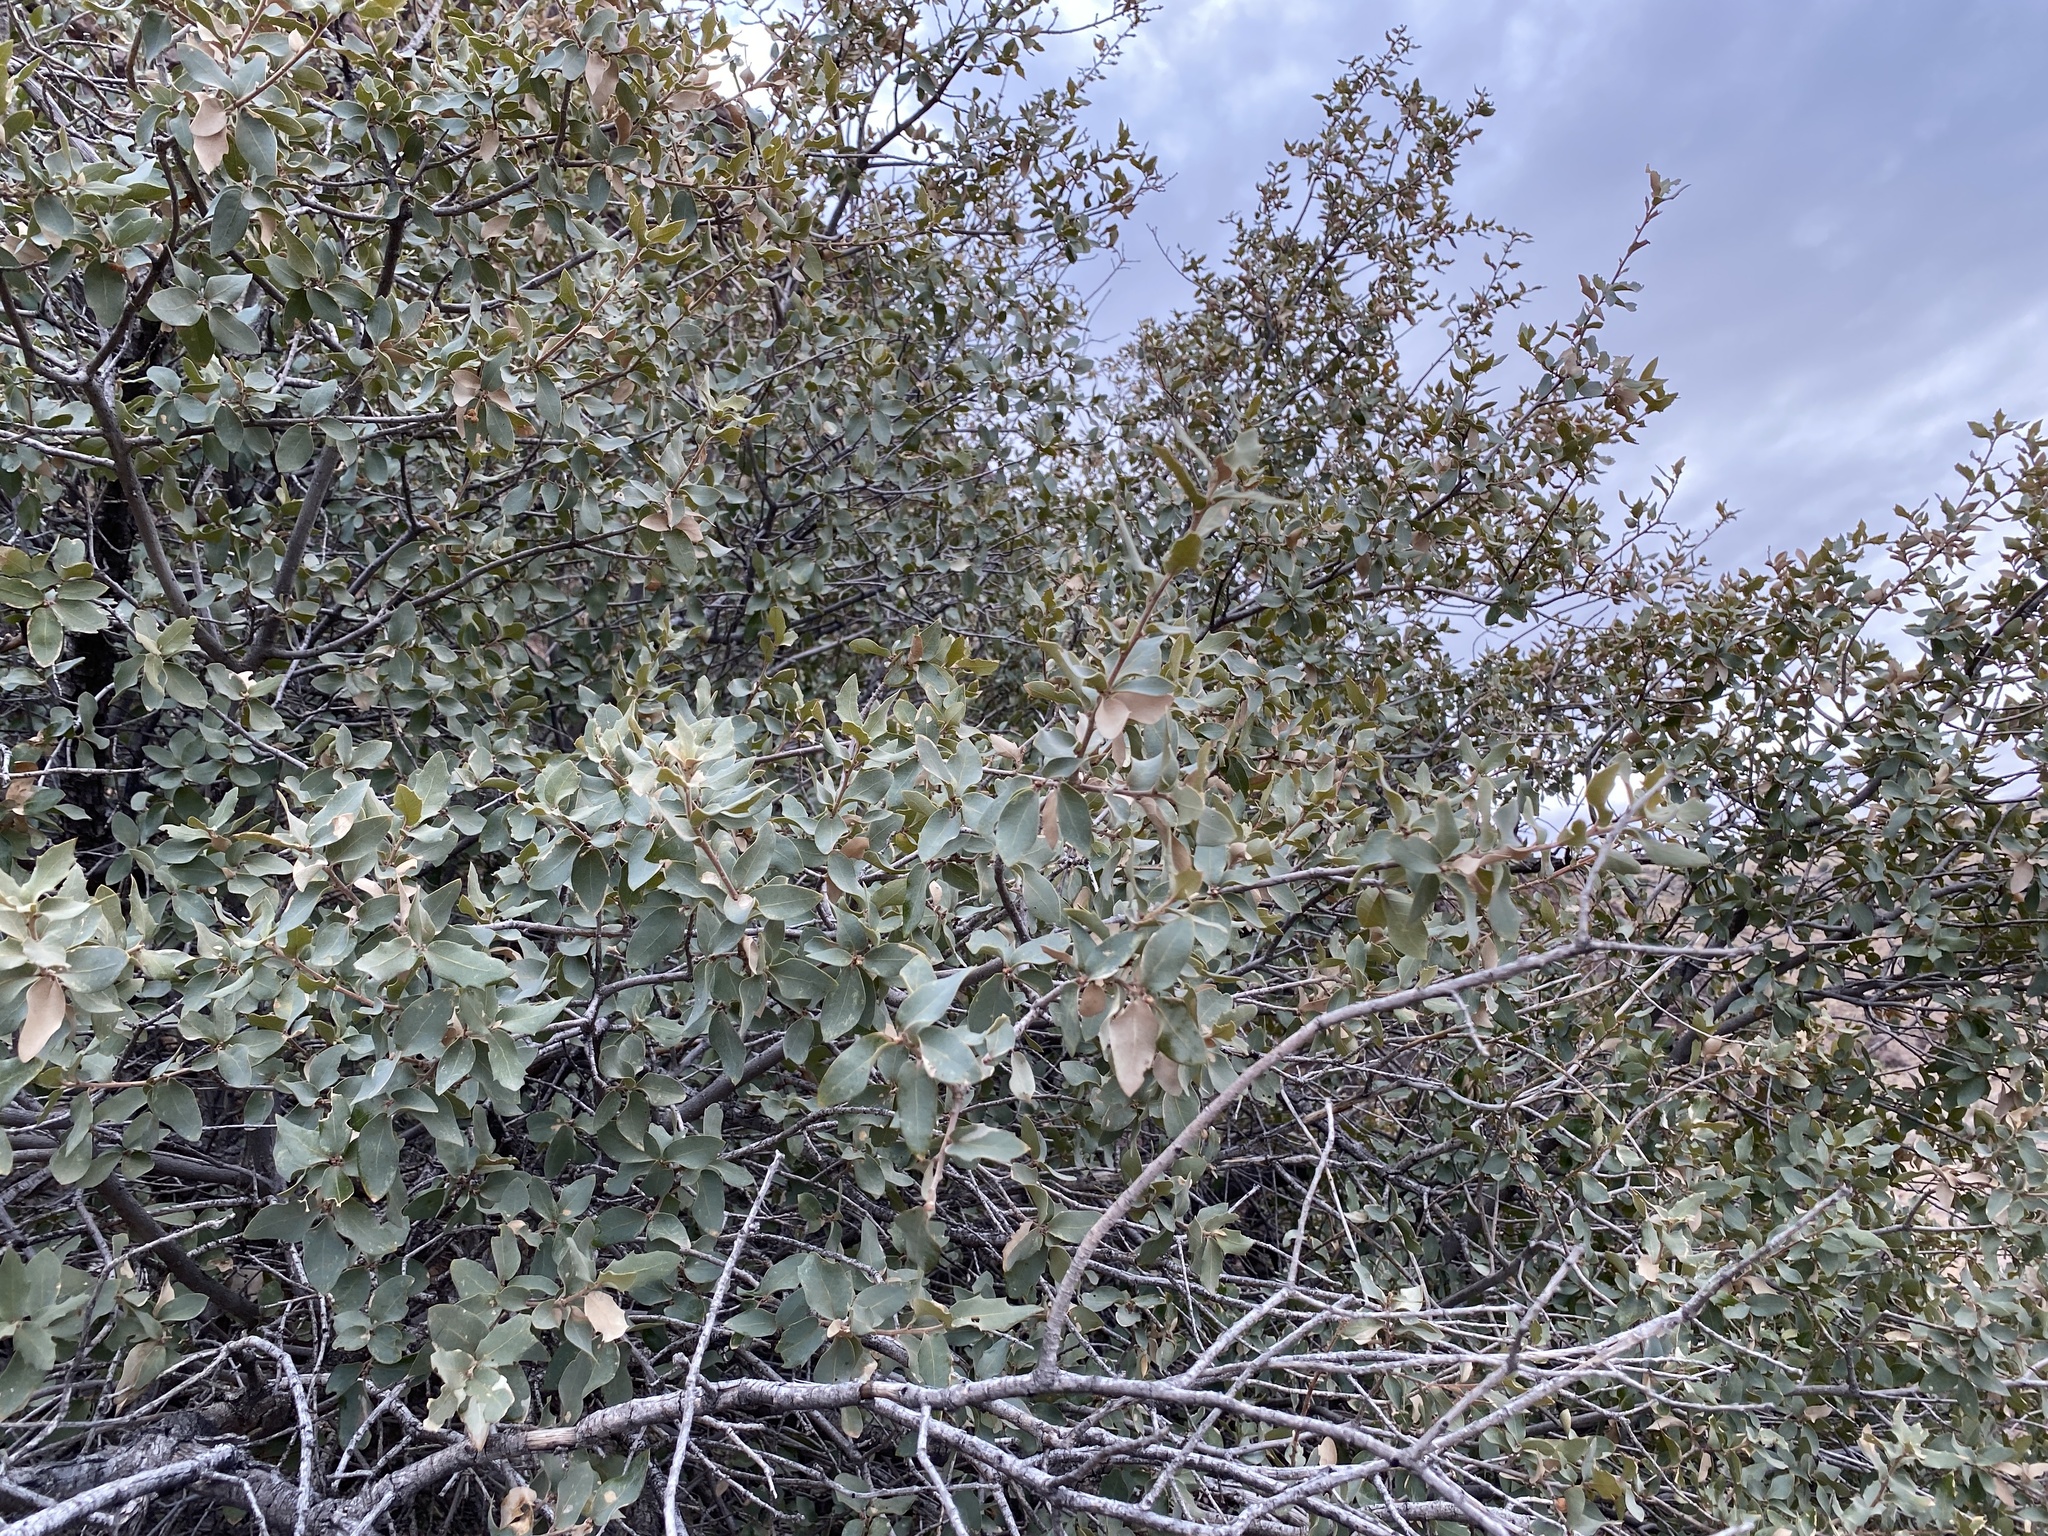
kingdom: Plantae
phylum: Tracheophyta
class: Magnoliopsida
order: Fagales
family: Fagaceae
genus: Quercus
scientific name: Quercus turbinella
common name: Sonoran scrub oak
